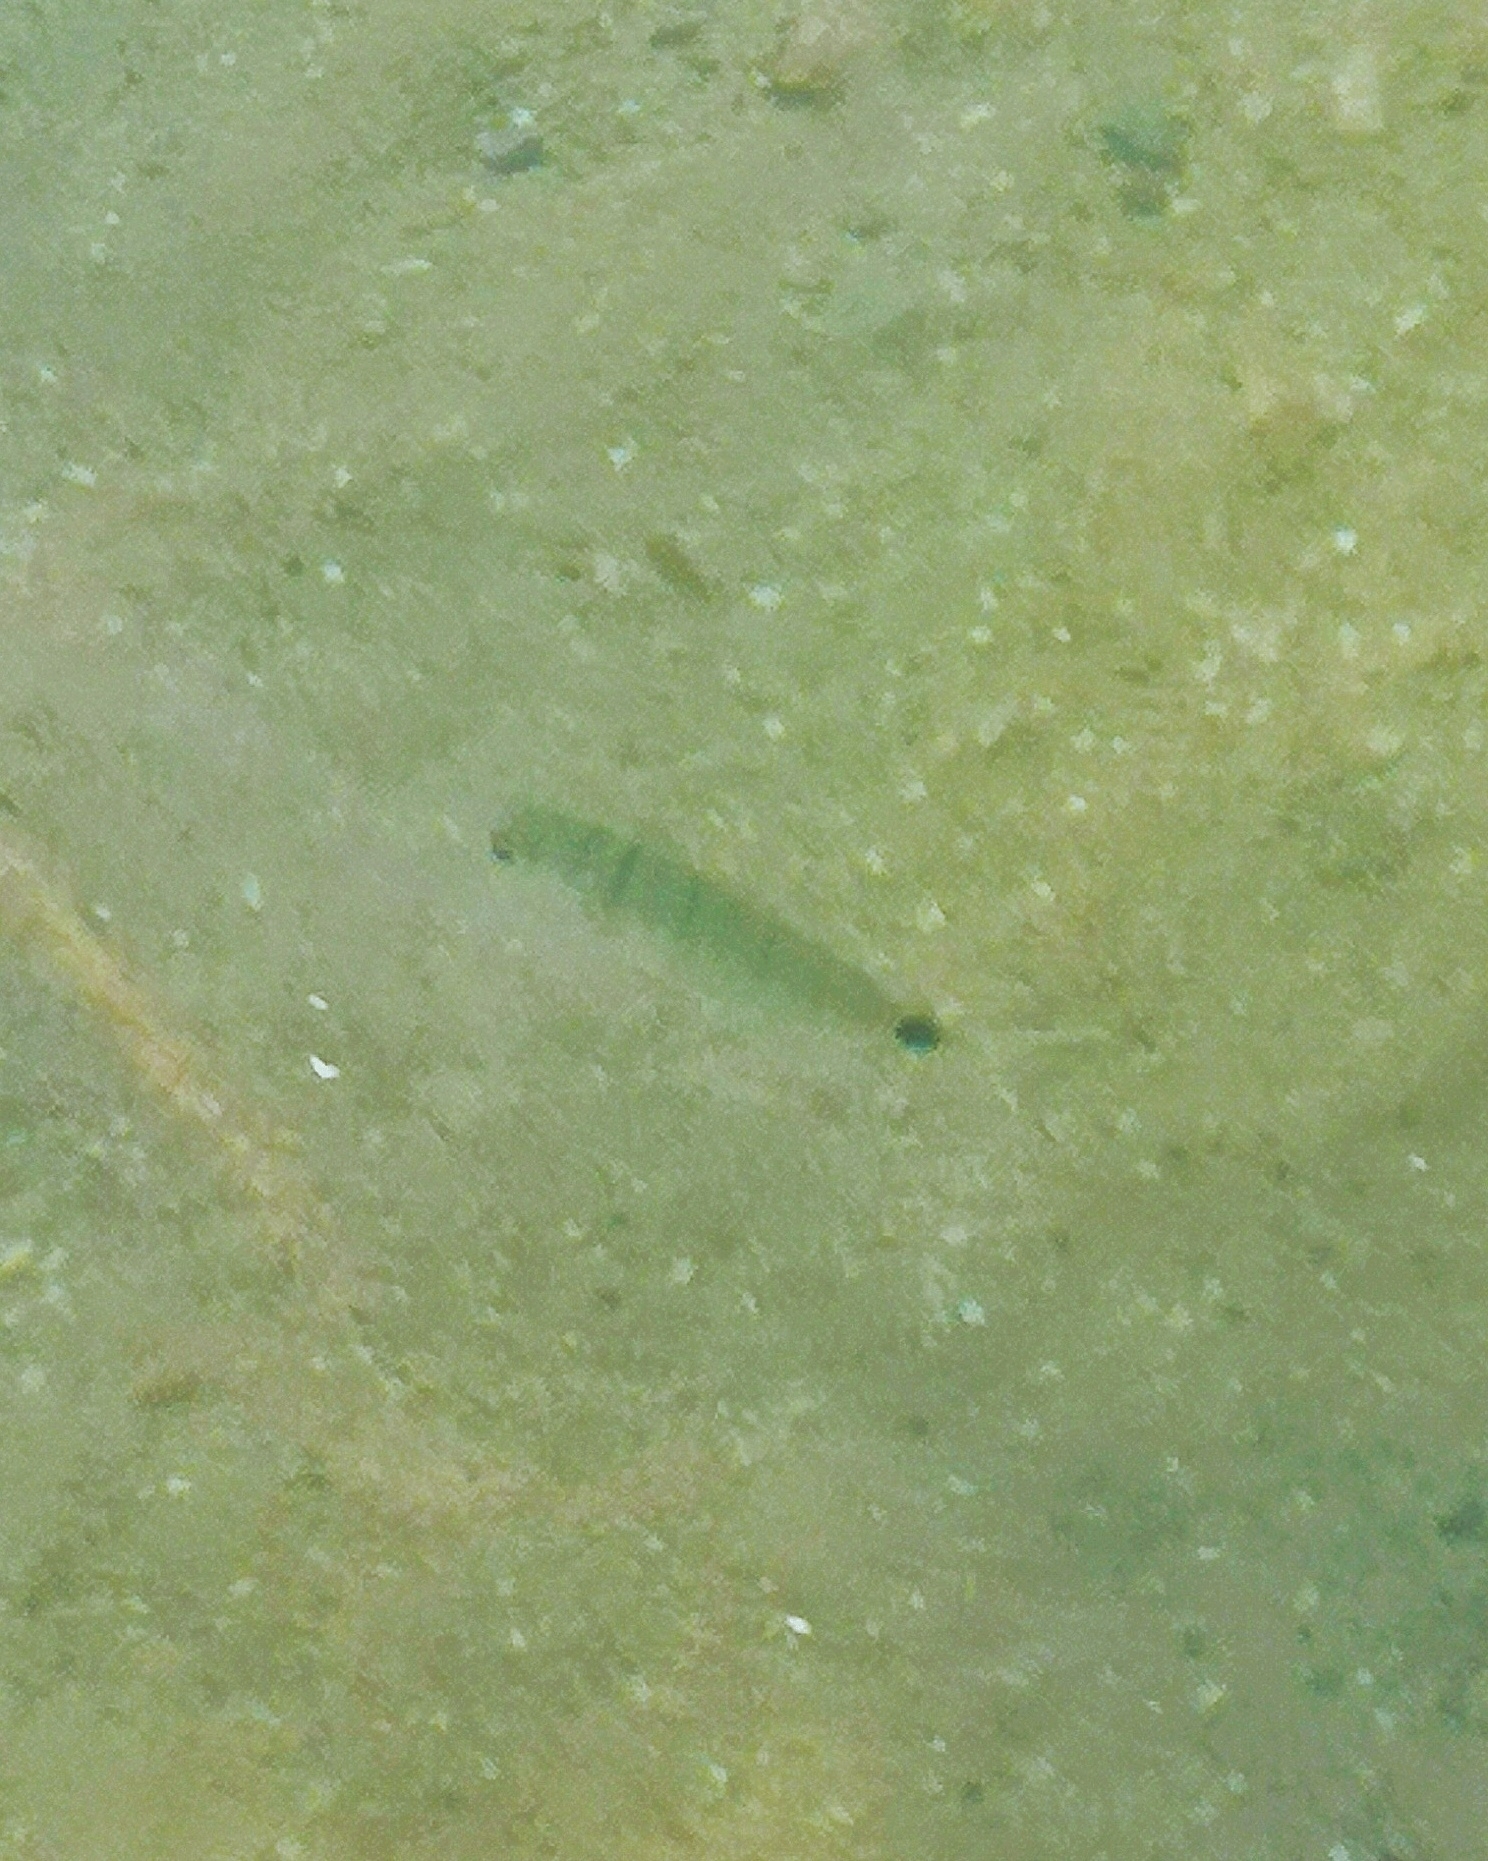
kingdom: Animalia
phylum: Chordata
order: Perciformes
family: Sparidae
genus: Diplodus
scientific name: Diplodus
